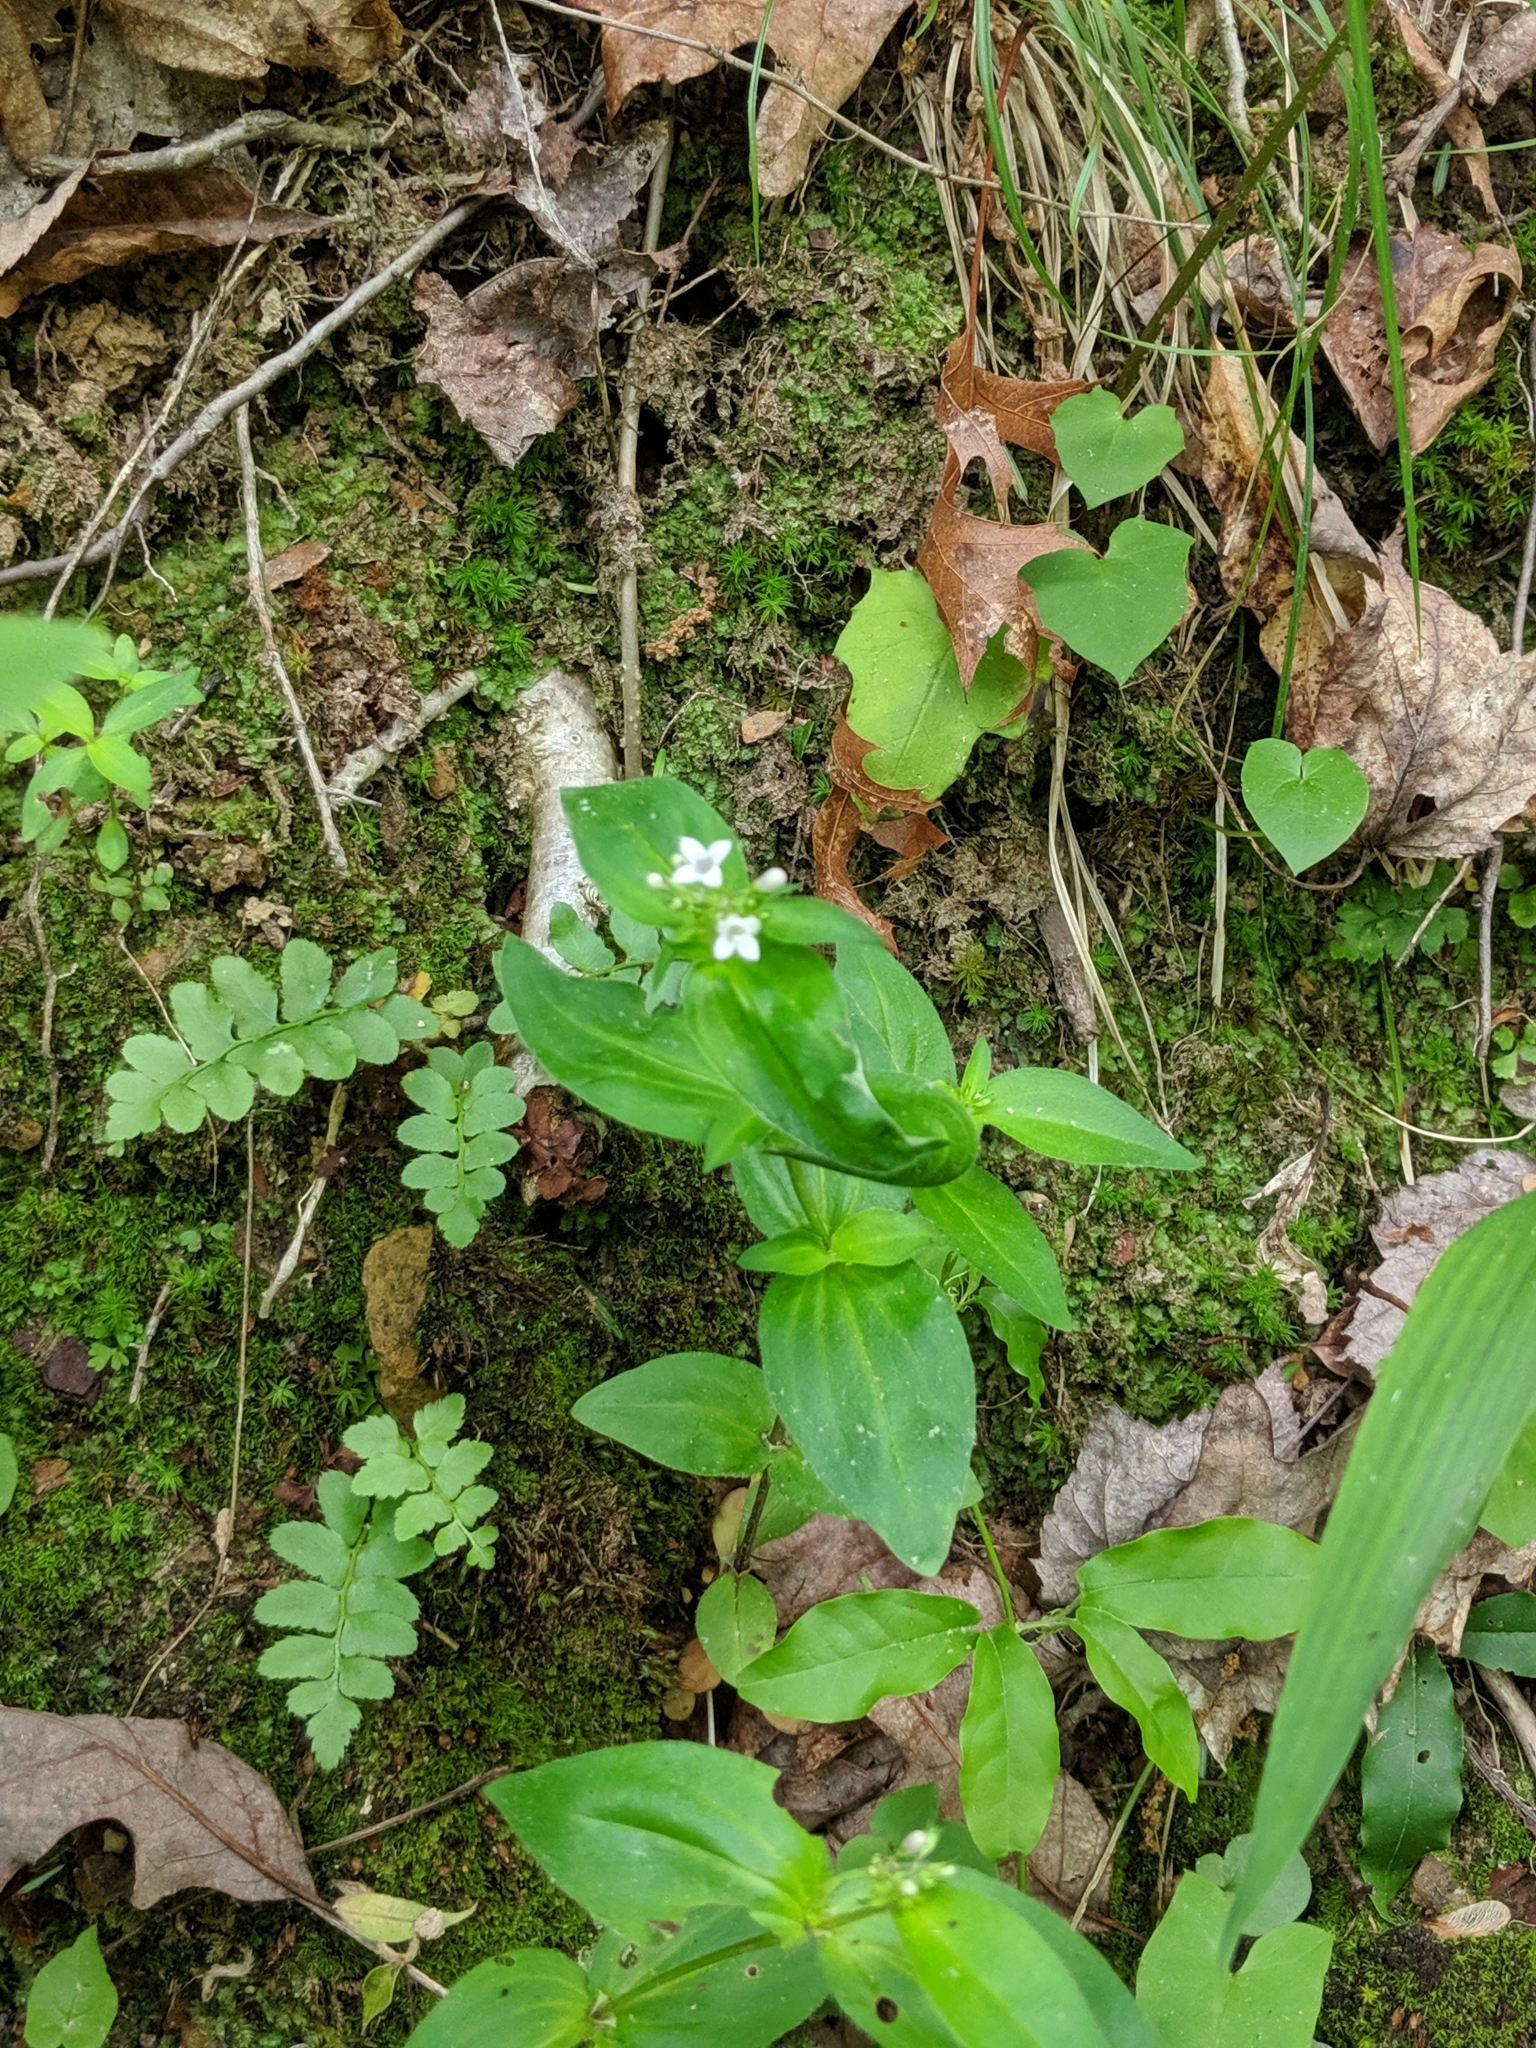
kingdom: Plantae
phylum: Tracheophyta
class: Magnoliopsida
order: Gentianales
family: Rubiaceae
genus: Houstonia
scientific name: Houstonia purpurea
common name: Summer bluet
